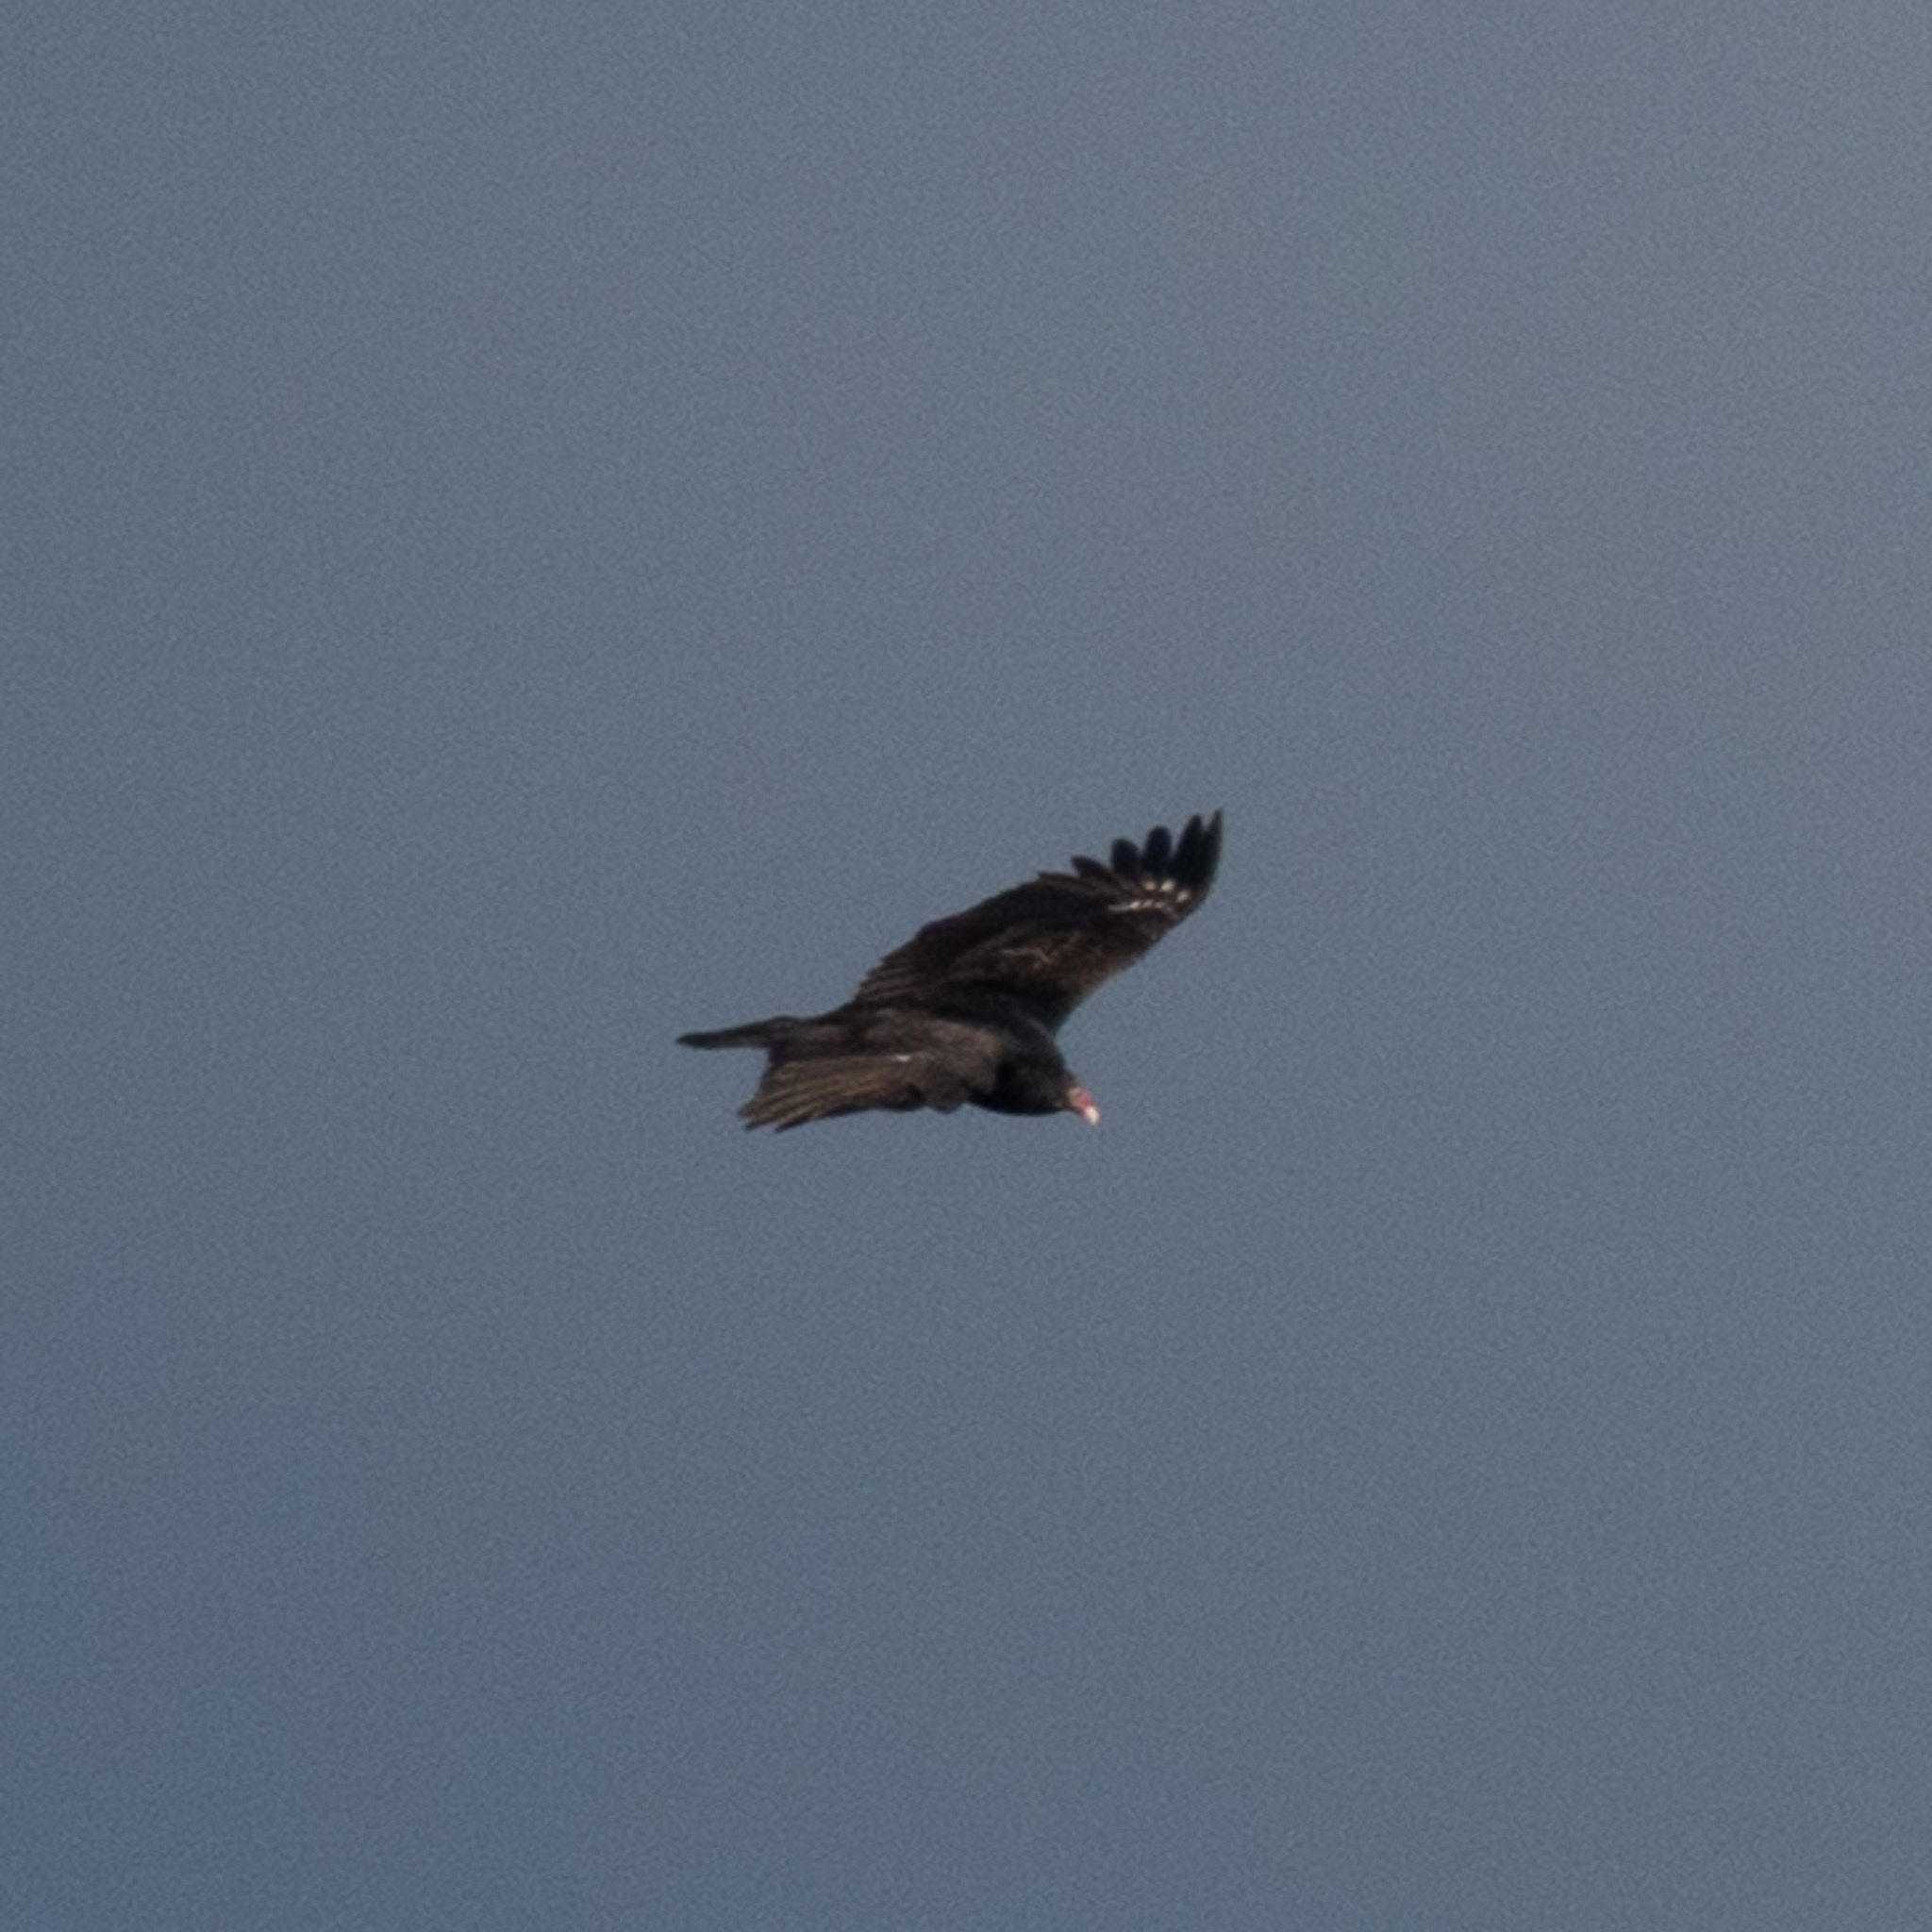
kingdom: Animalia
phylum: Chordata
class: Aves
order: Accipitriformes
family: Cathartidae
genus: Cathartes
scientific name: Cathartes aura
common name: Turkey vulture
